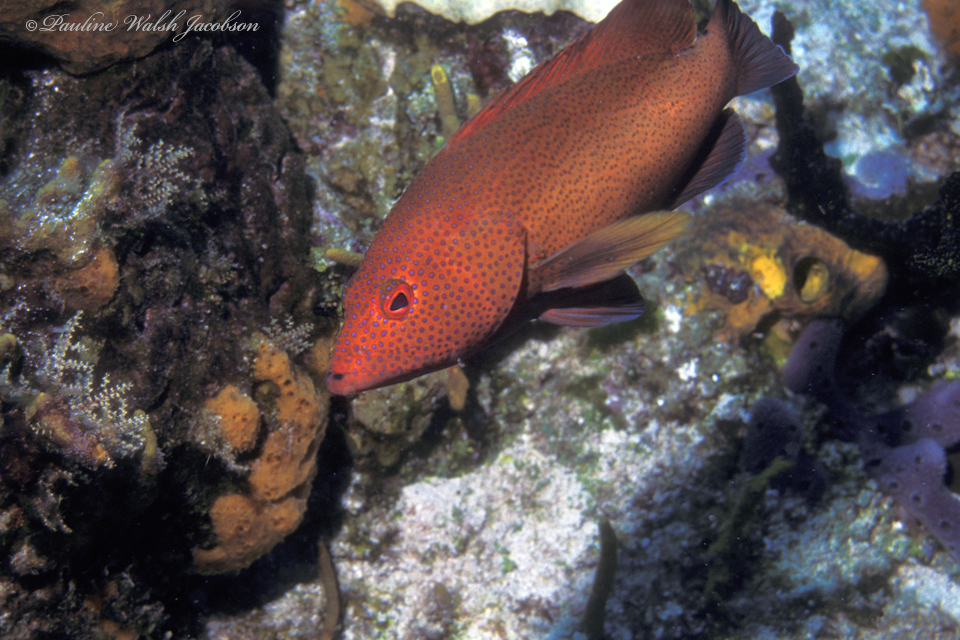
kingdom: Animalia
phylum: Chordata
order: Perciformes
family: Serranidae
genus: Cephalopholis
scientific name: Cephalopholis fulva
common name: Butterfish
